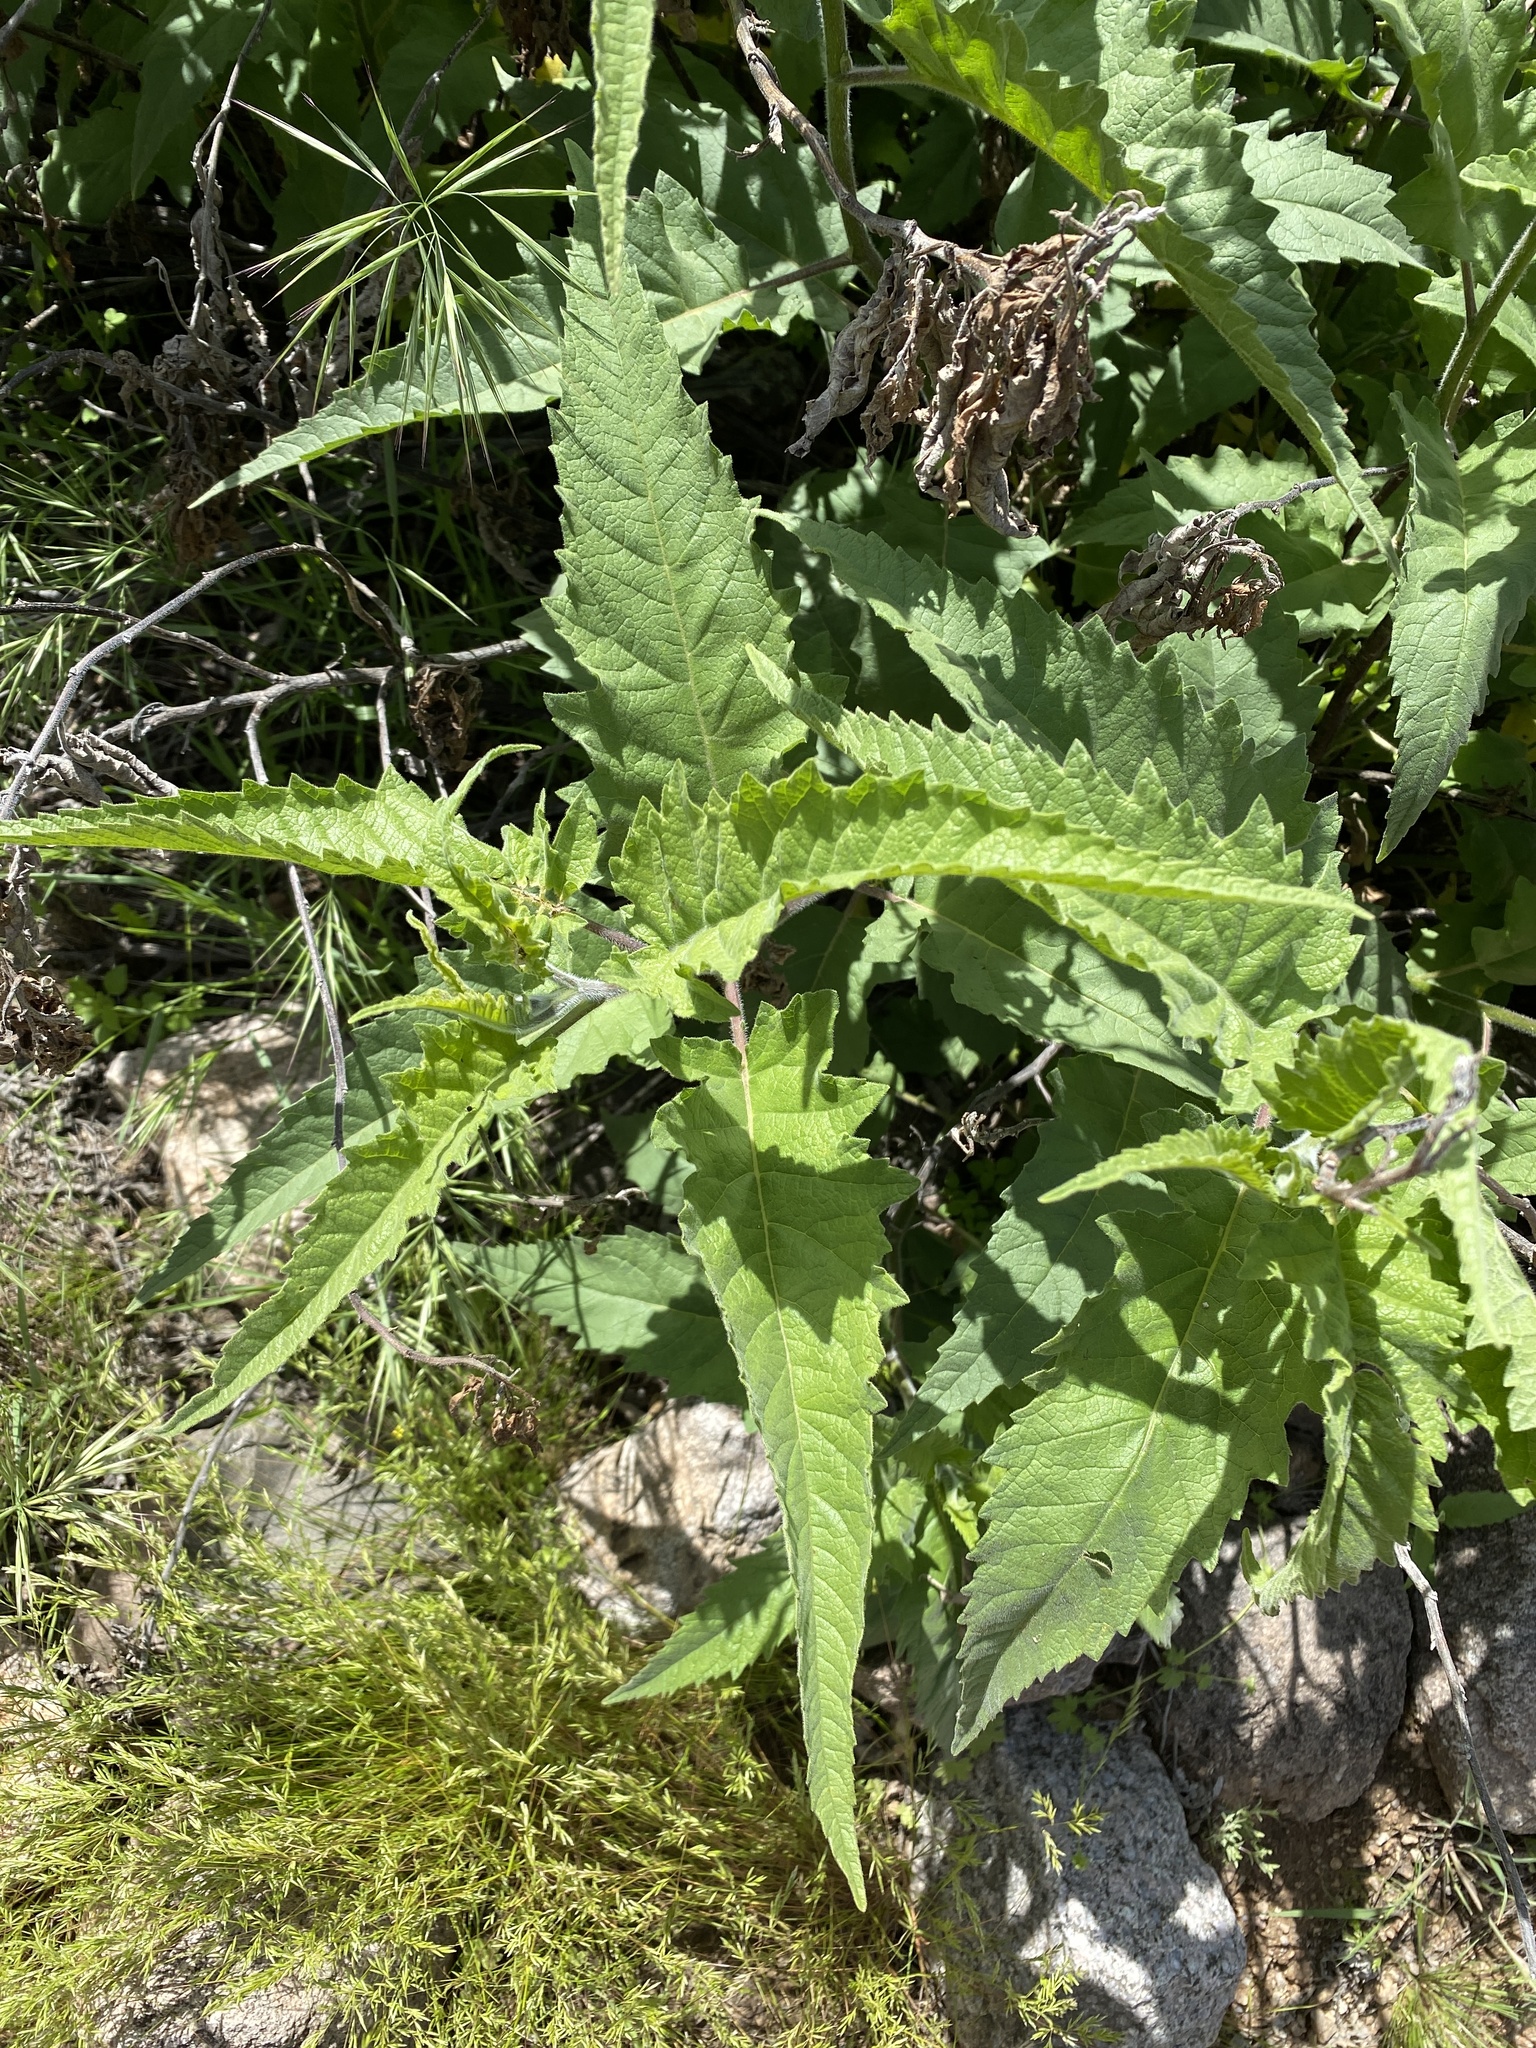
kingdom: Plantae
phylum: Tracheophyta
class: Magnoliopsida
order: Asterales
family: Asteraceae
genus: Ambrosia
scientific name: Ambrosia ambrosioides
